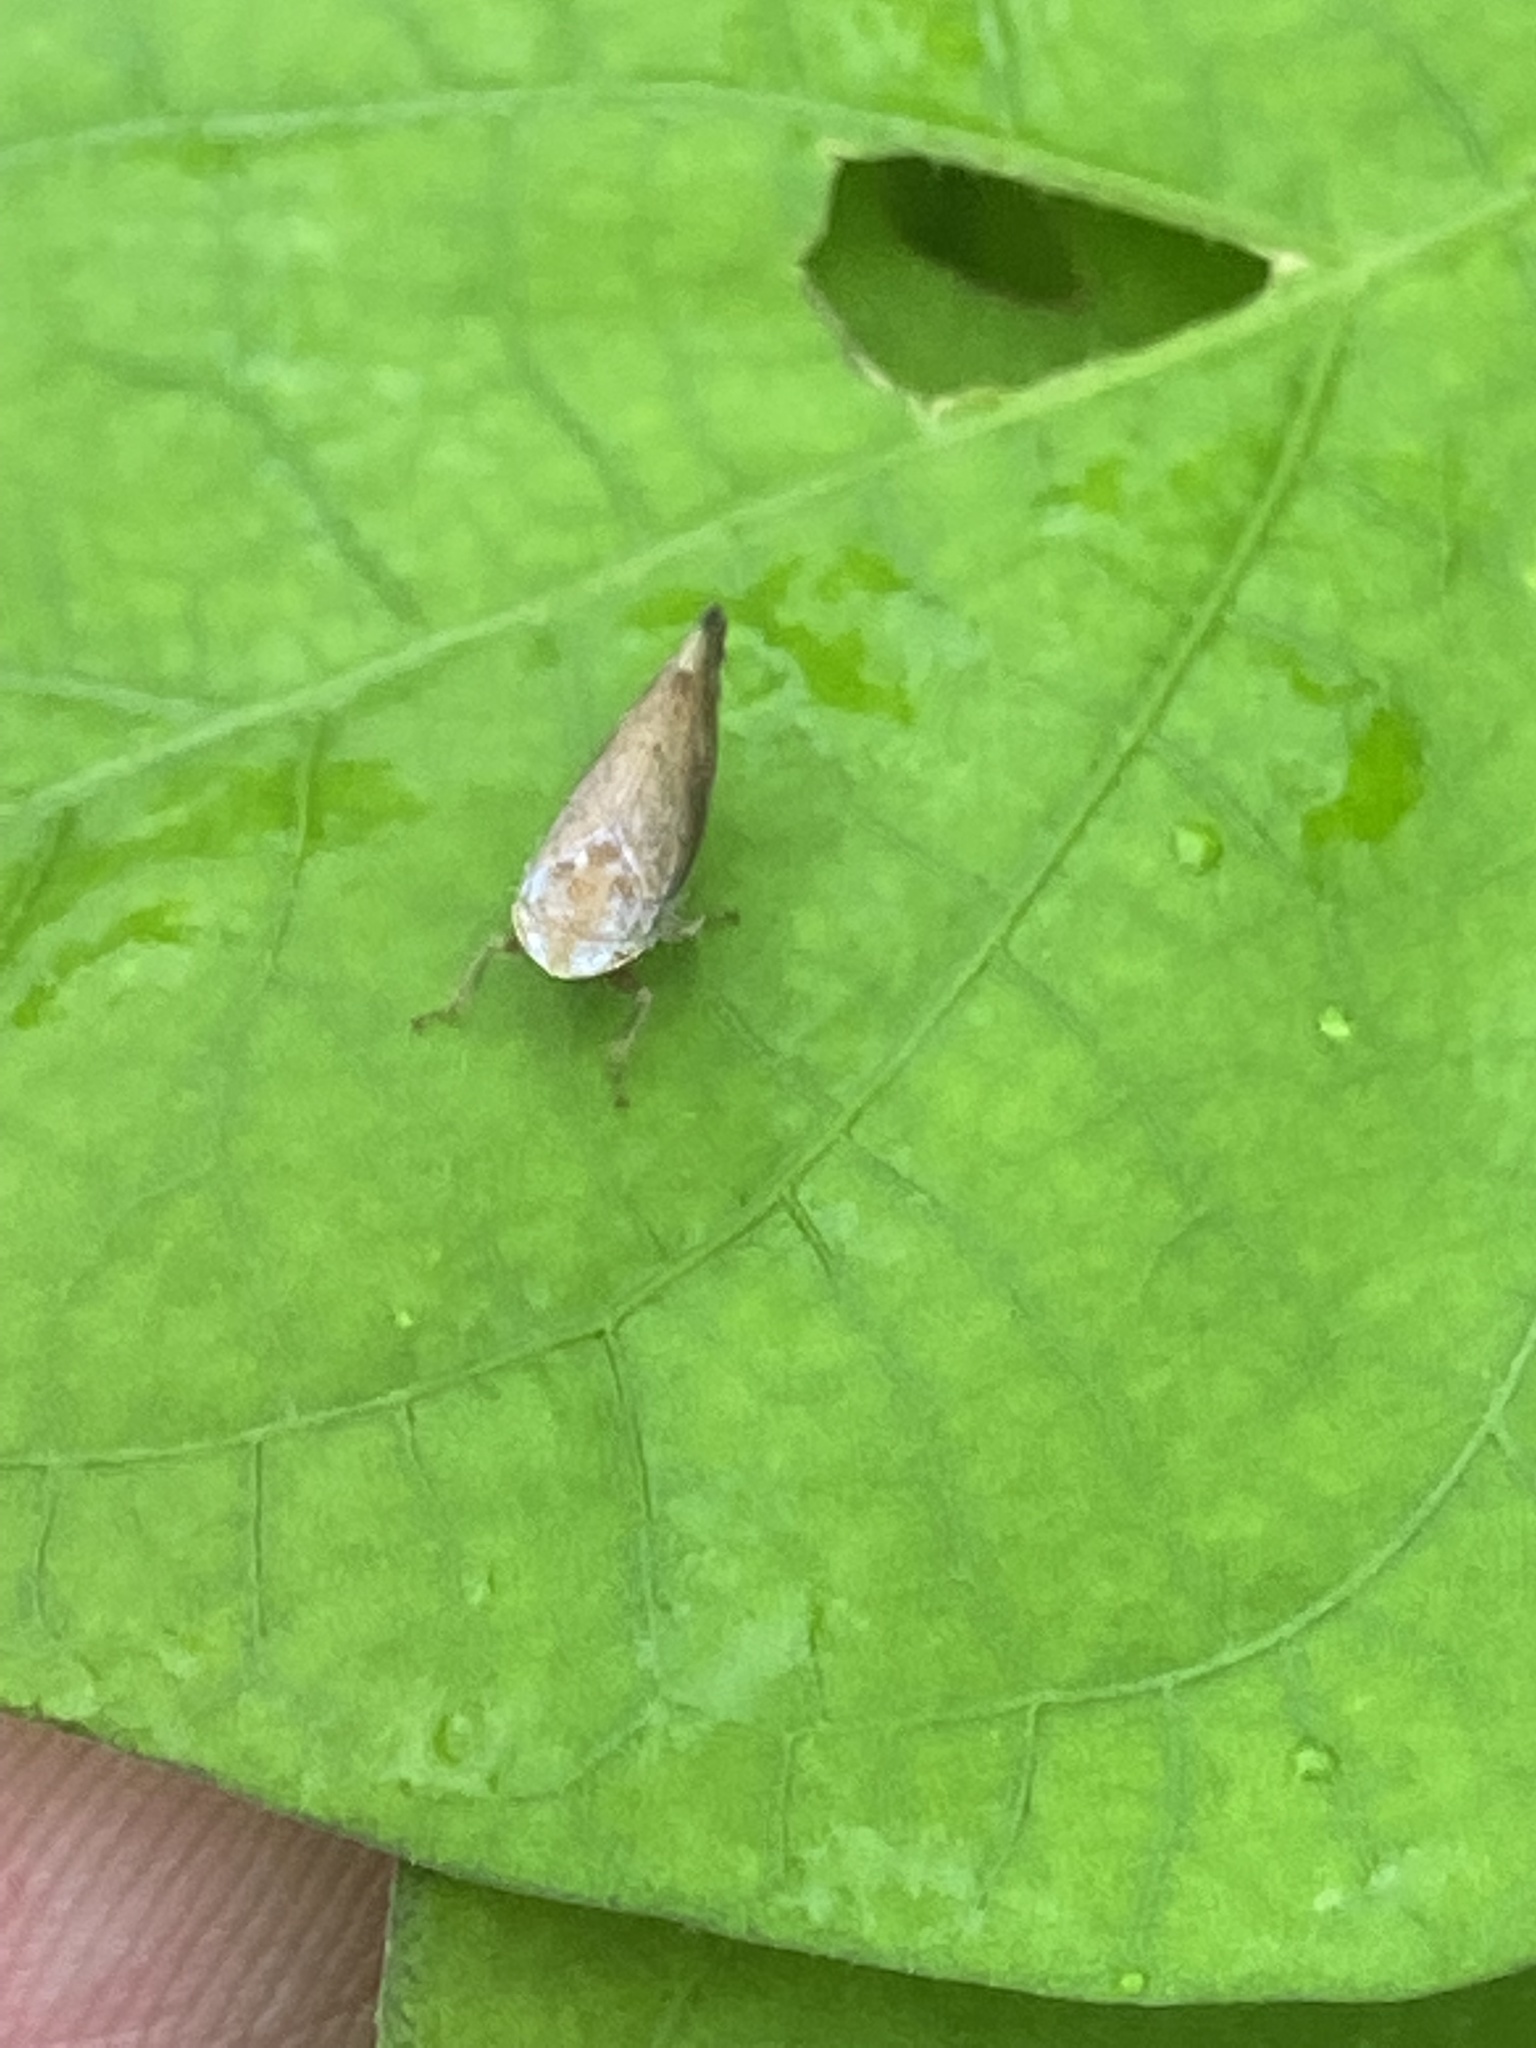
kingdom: Animalia
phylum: Arthropoda
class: Insecta
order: Hemiptera
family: Cicadellidae
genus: Fieberiella
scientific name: Fieberiella florii
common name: Flor’s leafhopper
